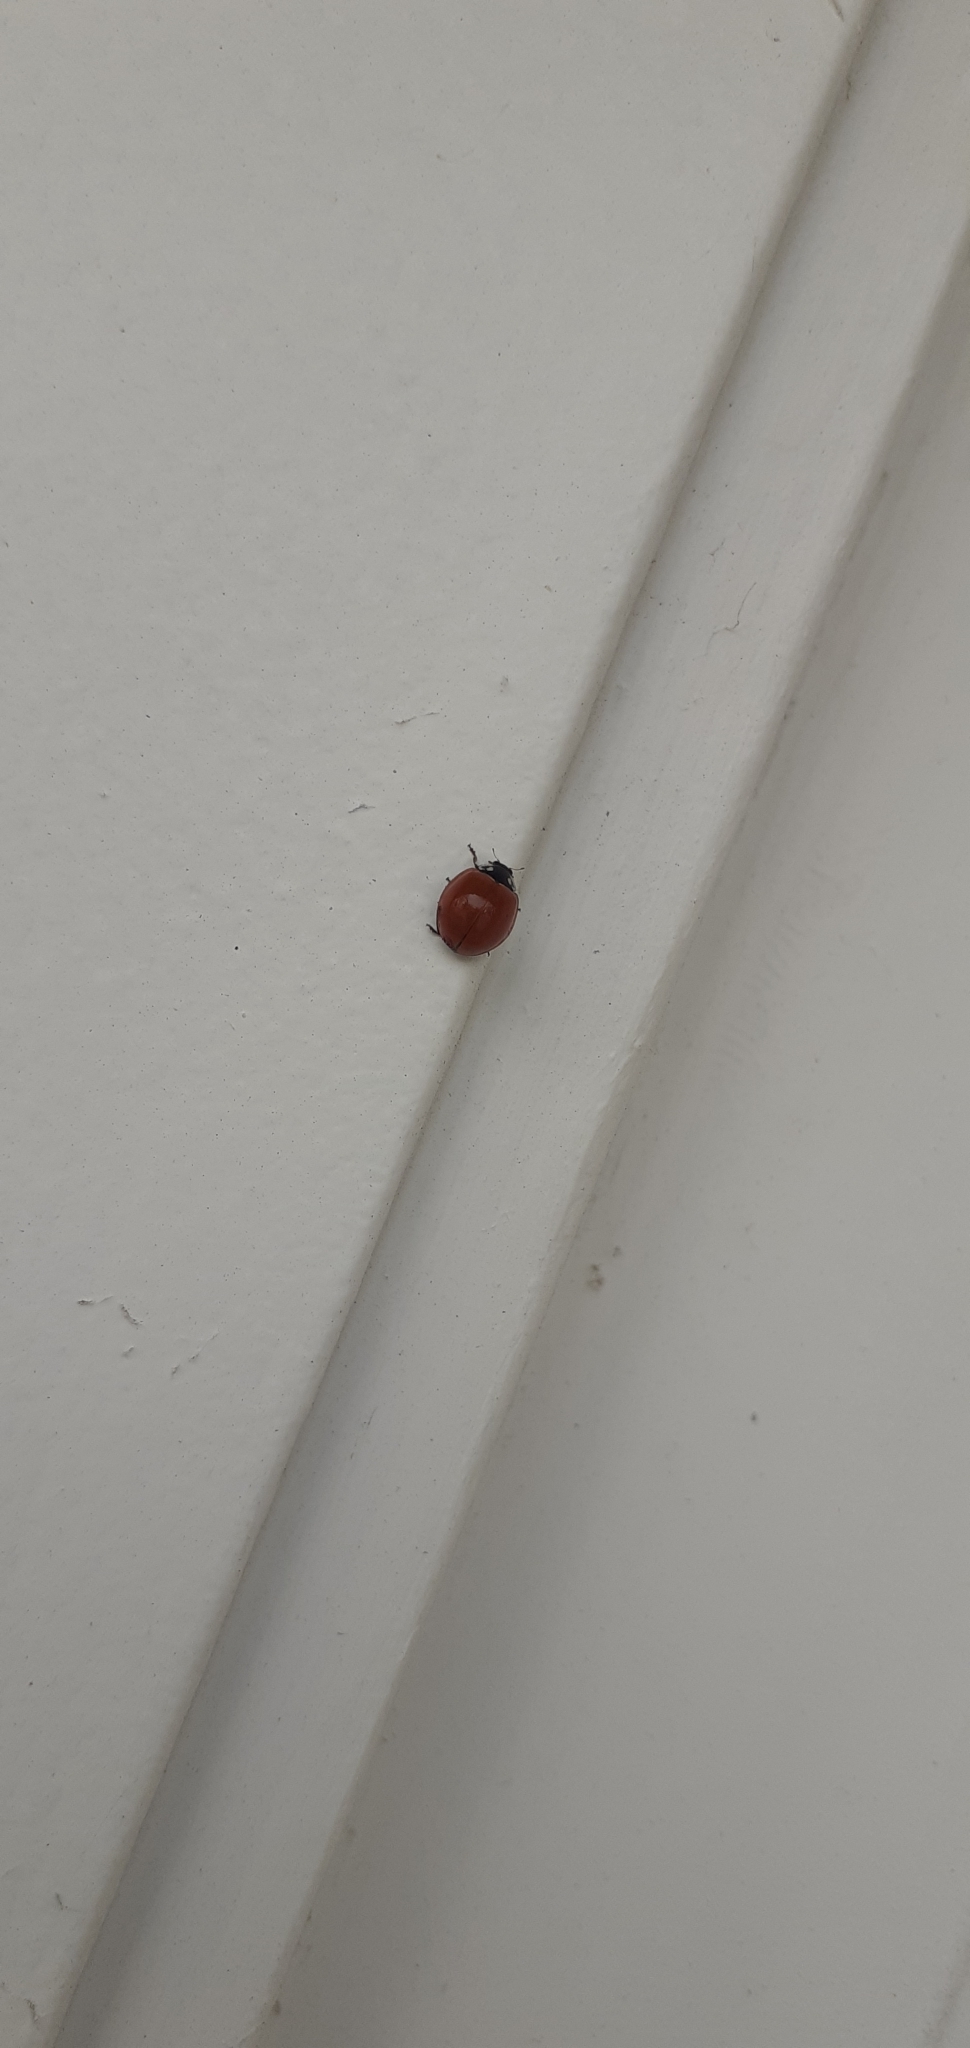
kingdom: Animalia
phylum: Arthropoda
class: Insecta
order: Coleoptera
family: Coccinellidae
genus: Cycloneda
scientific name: Cycloneda sanguinea
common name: Ladybird beetle
